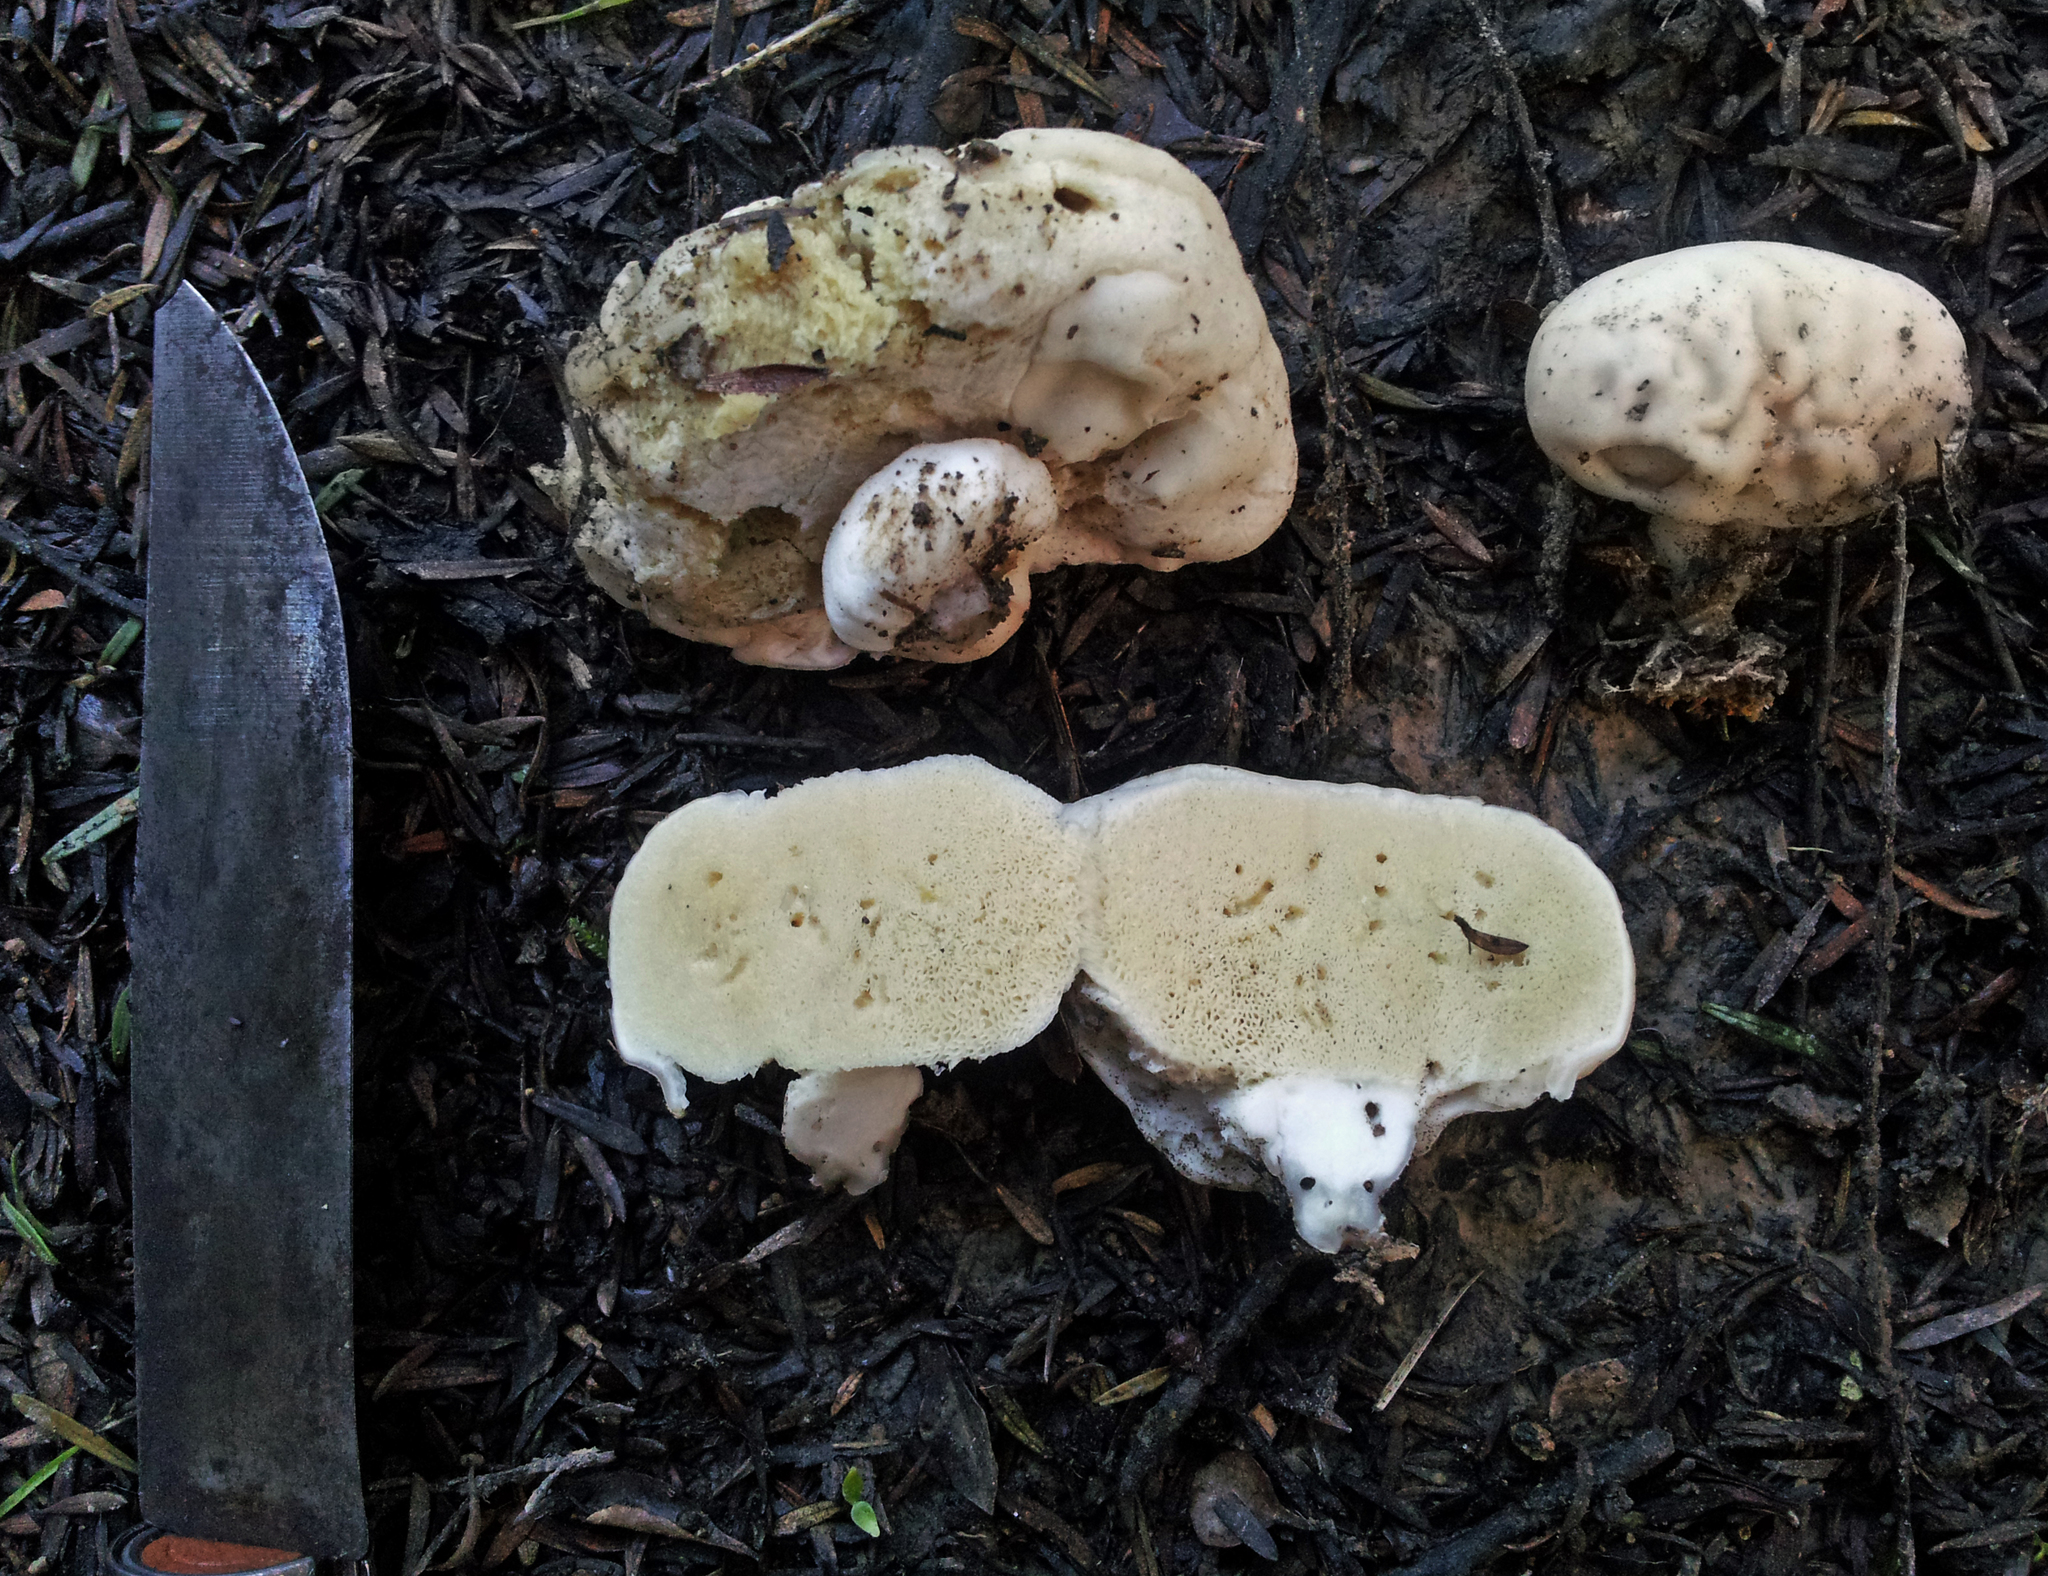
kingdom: Fungi
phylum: Basidiomycota
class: Agaricomycetes
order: Boletales
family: Boletaceae
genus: Boletus
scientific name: Boletus semigastroideus
